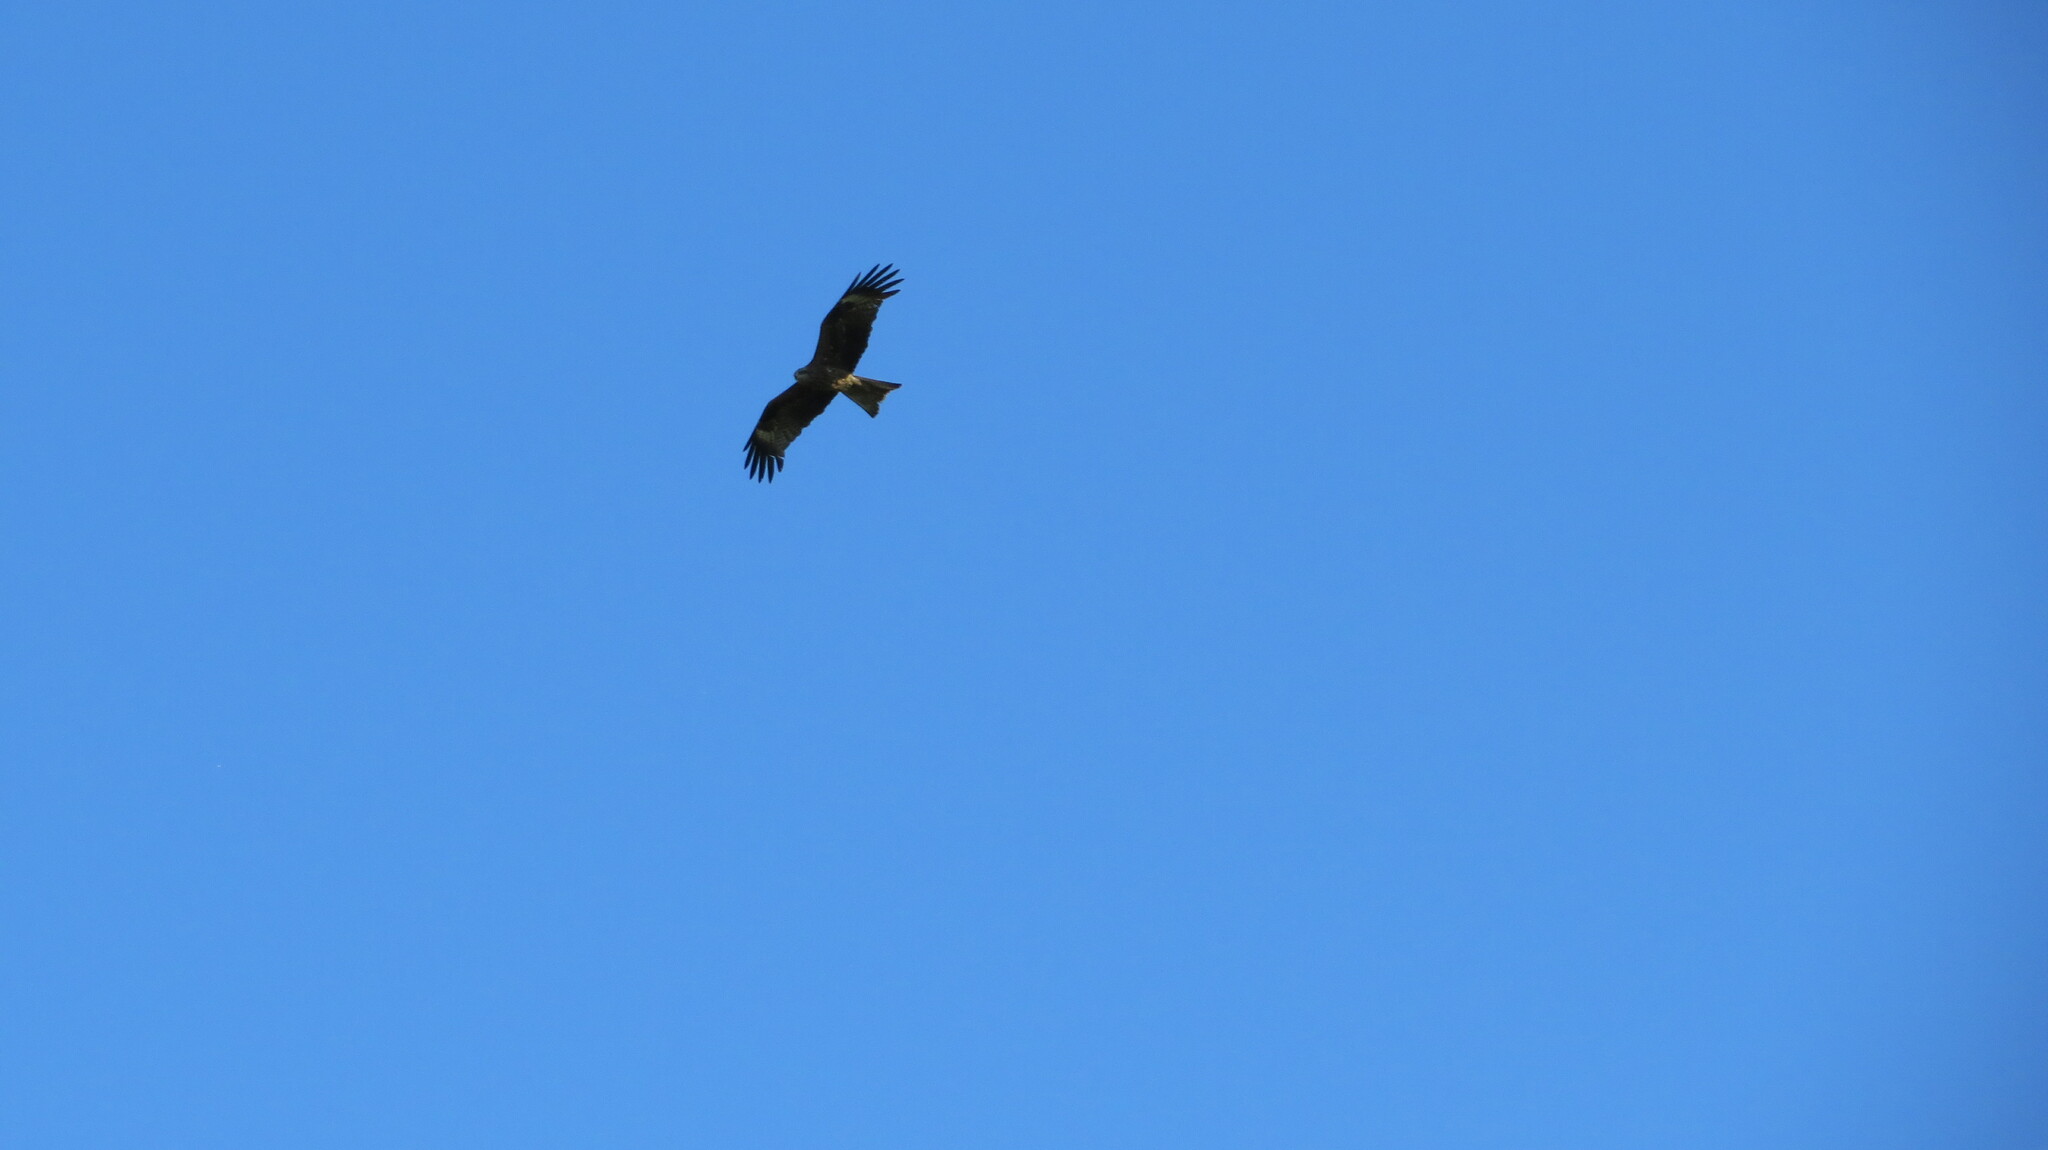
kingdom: Animalia
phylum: Chordata
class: Aves
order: Accipitriformes
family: Accipitridae
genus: Milvus
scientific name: Milvus migrans
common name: Black kite
